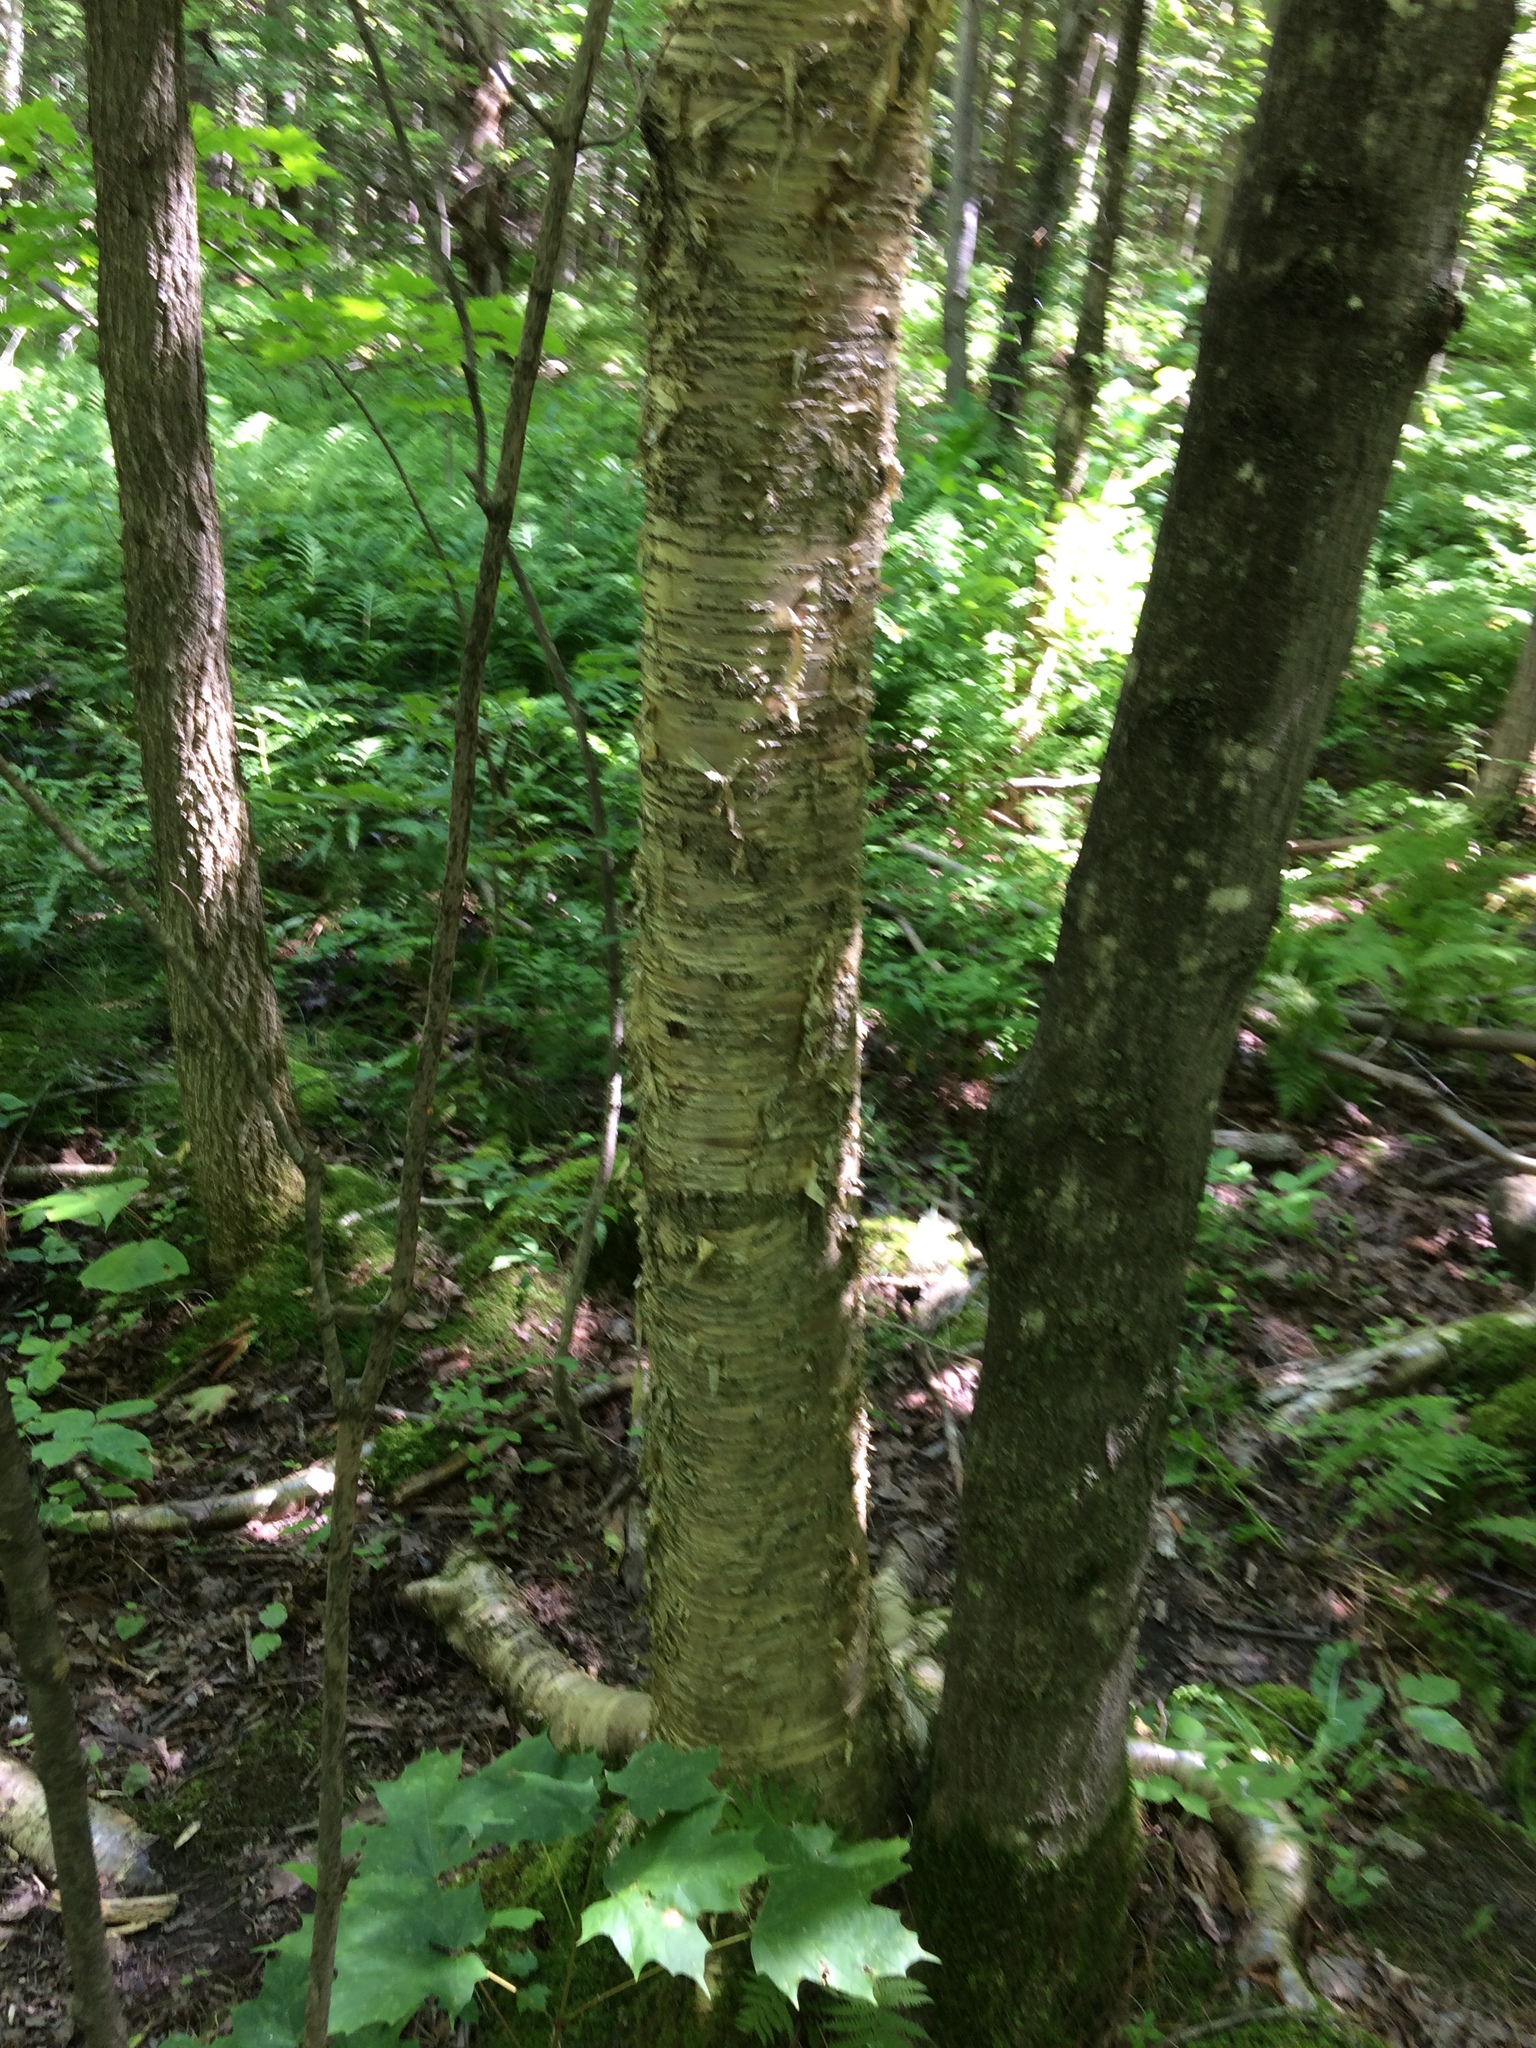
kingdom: Plantae
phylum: Tracheophyta
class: Magnoliopsida
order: Fagales
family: Betulaceae
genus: Betula
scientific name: Betula alleghaniensis
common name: Yellow birch
